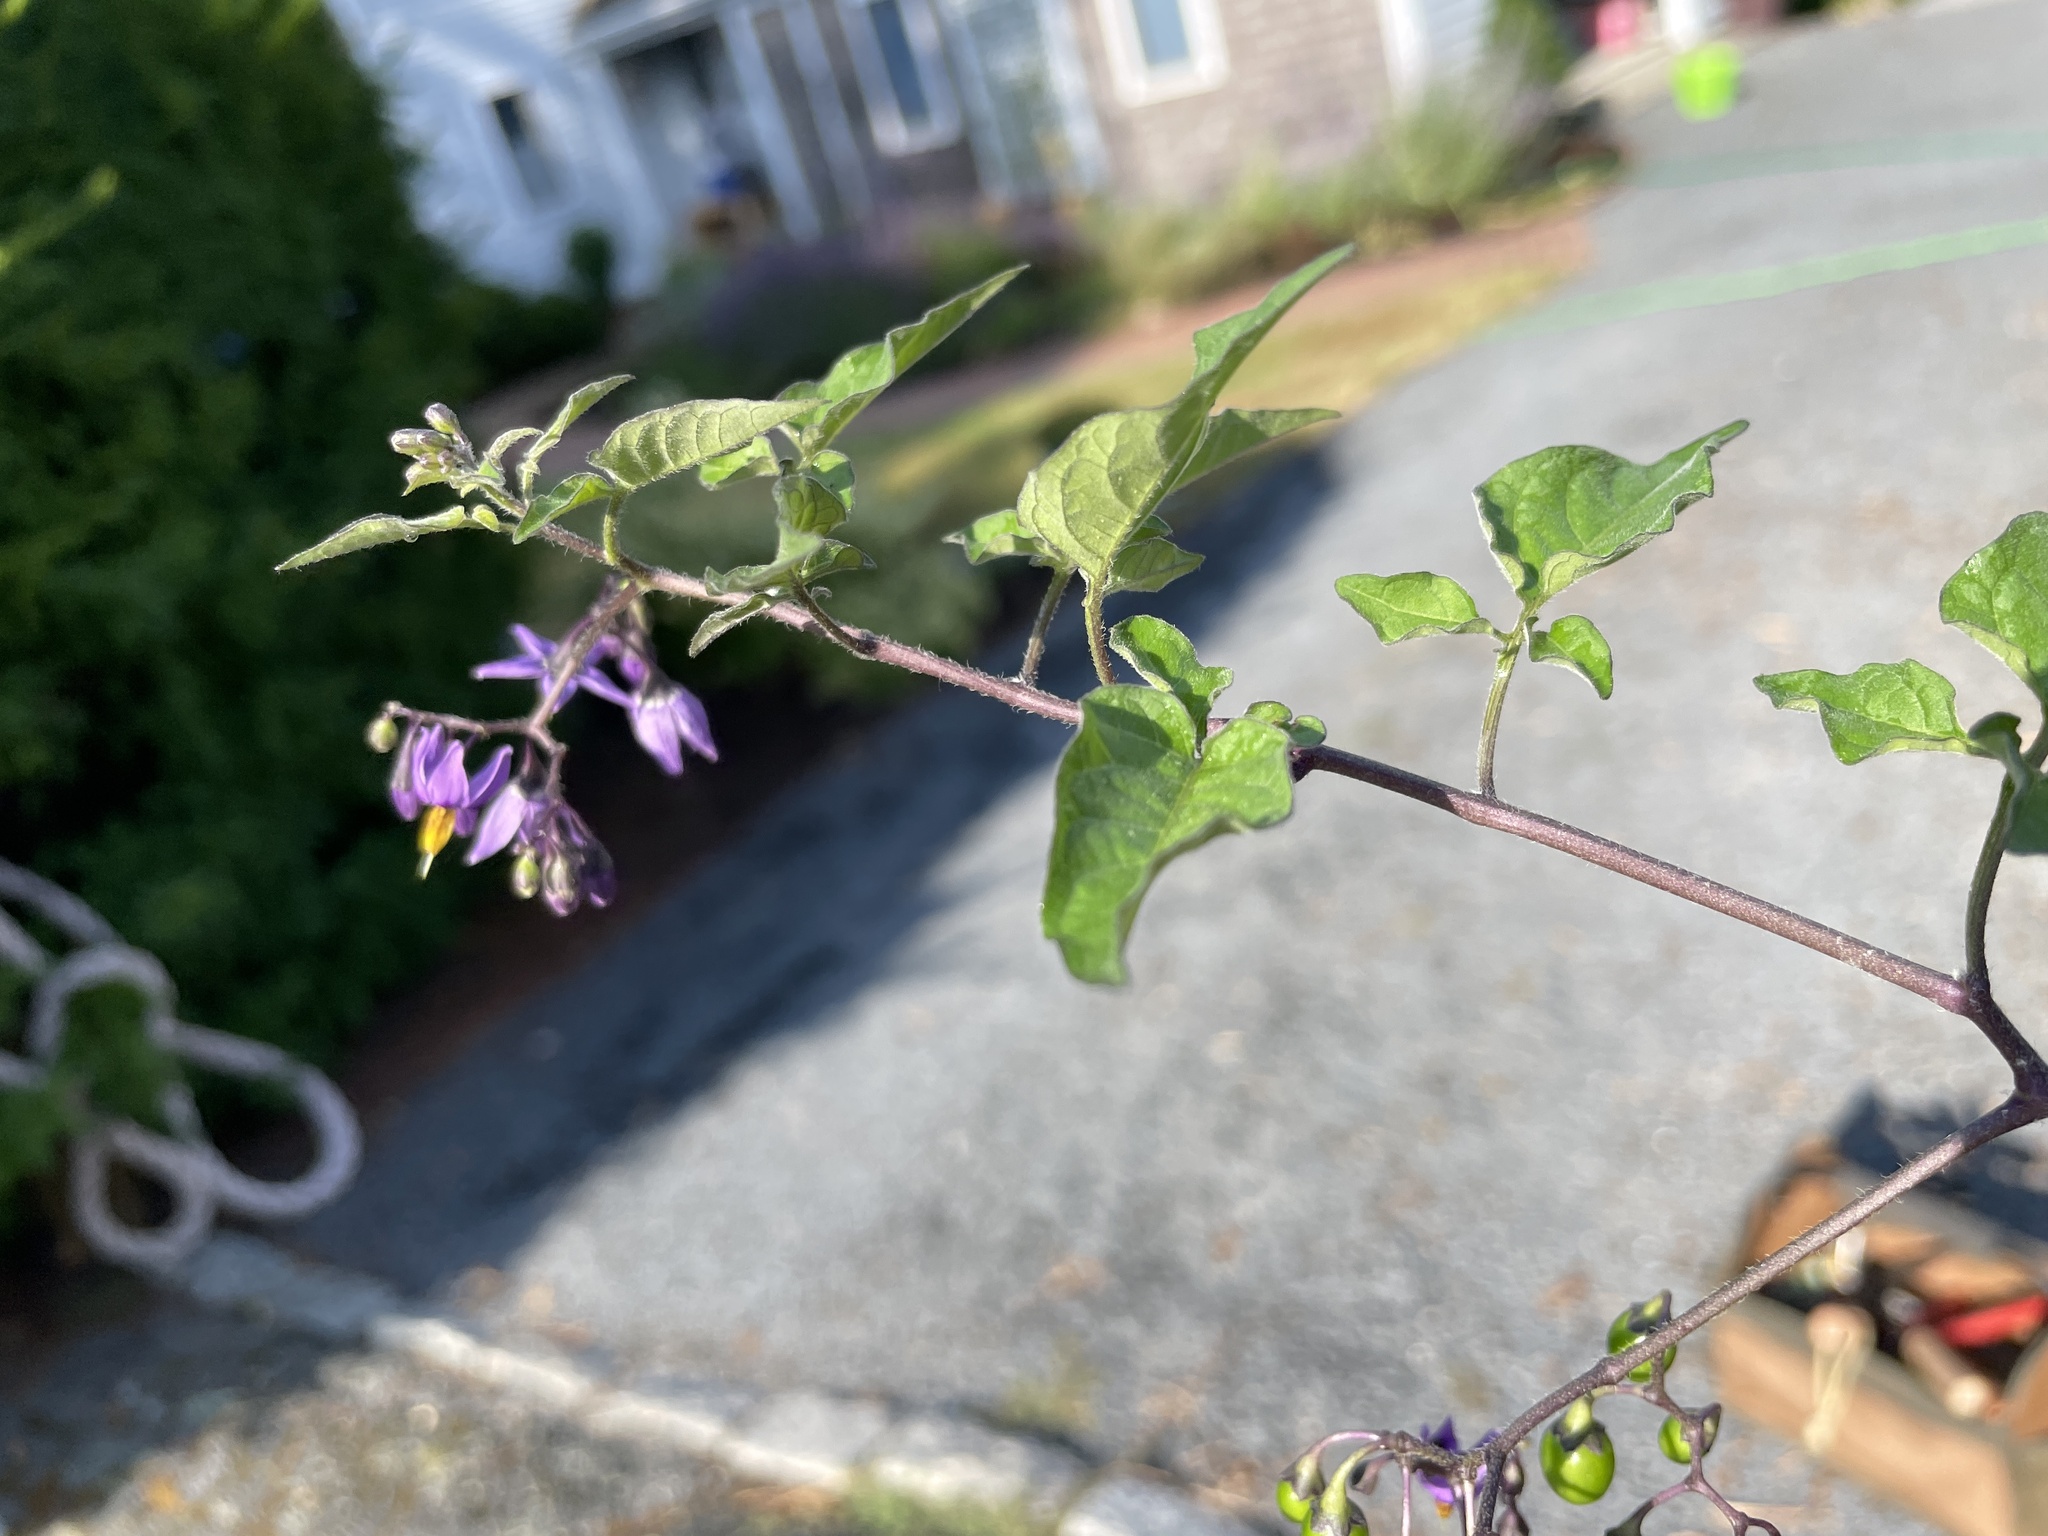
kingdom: Plantae
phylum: Tracheophyta
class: Magnoliopsida
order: Solanales
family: Solanaceae
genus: Solanum
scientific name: Solanum dulcamara
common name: Climbing nightshade
